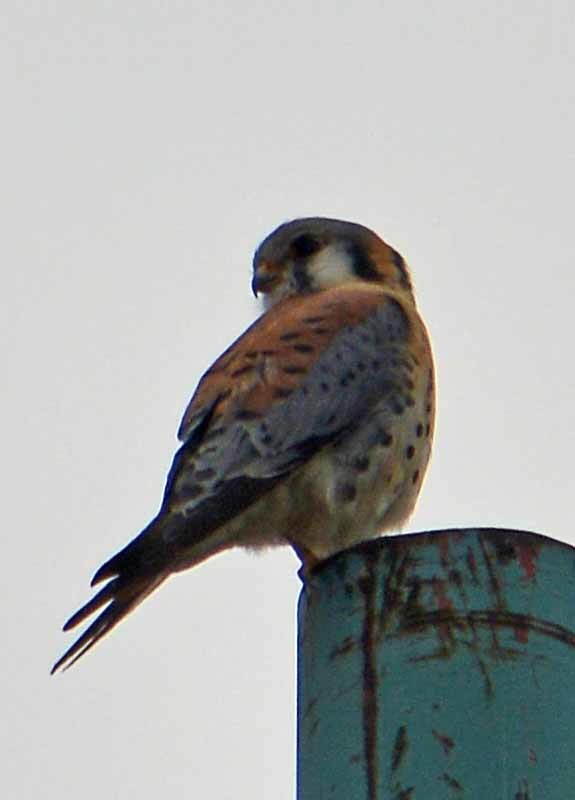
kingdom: Animalia
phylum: Chordata
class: Aves
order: Falconiformes
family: Falconidae
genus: Falco
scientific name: Falco sparverius
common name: American kestrel
